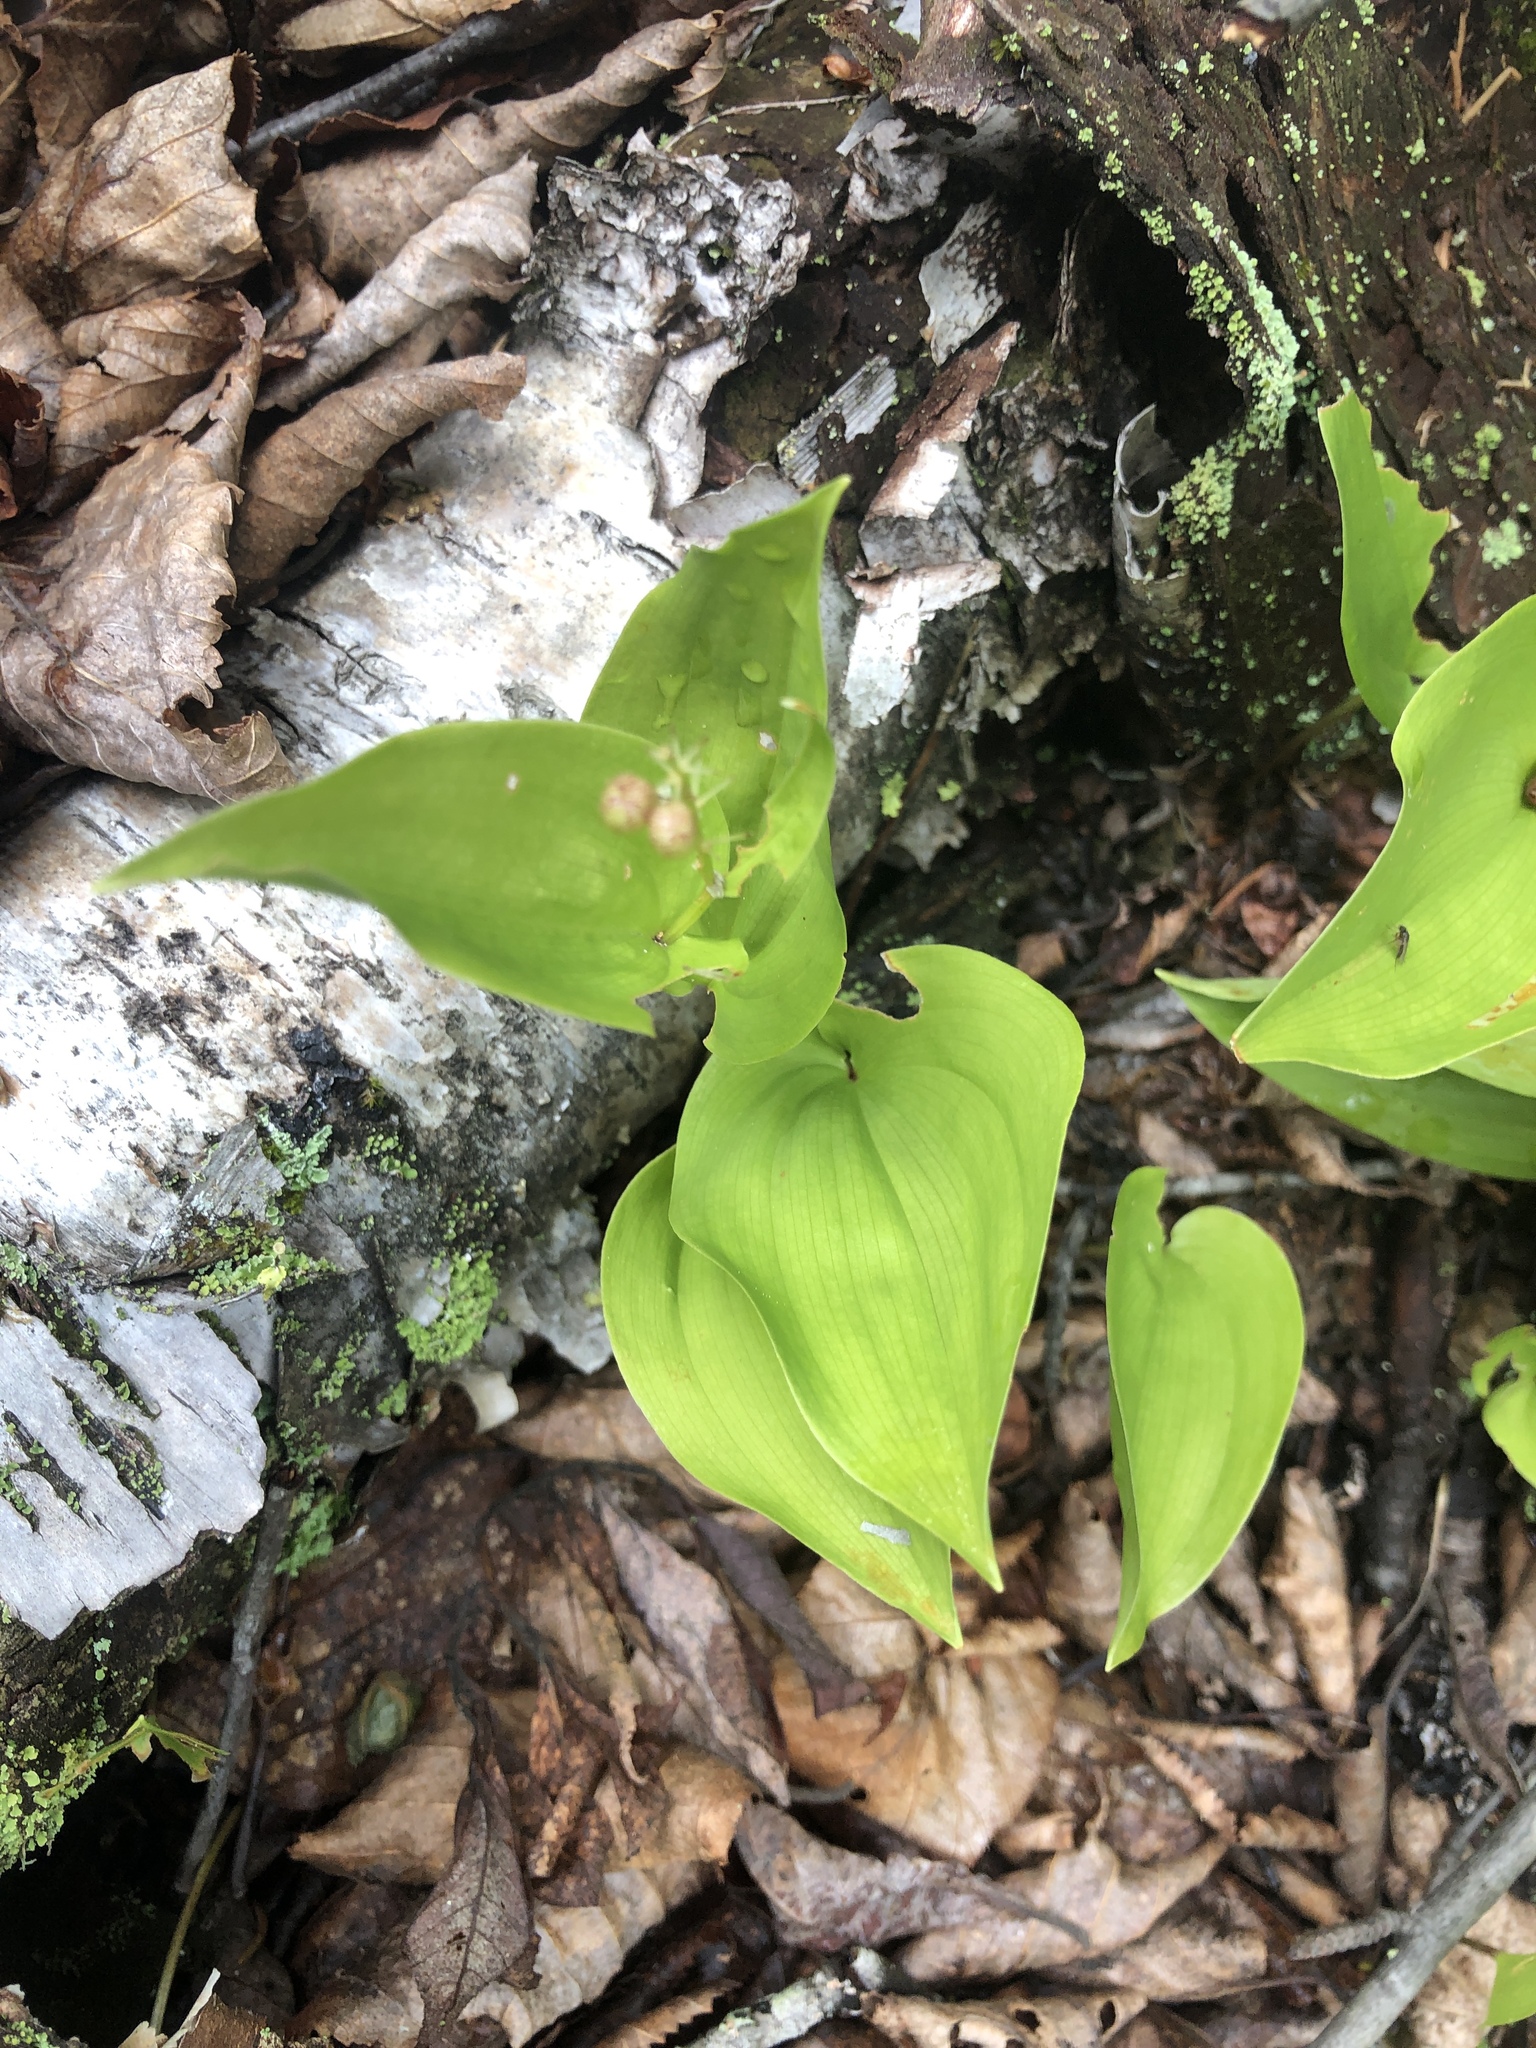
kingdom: Plantae
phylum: Tracheophyta
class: Liliopsida
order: Asparagales
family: Asparagaceae
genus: Maianthemum
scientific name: Maianthemum canadense
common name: False lily-of-the-valley
